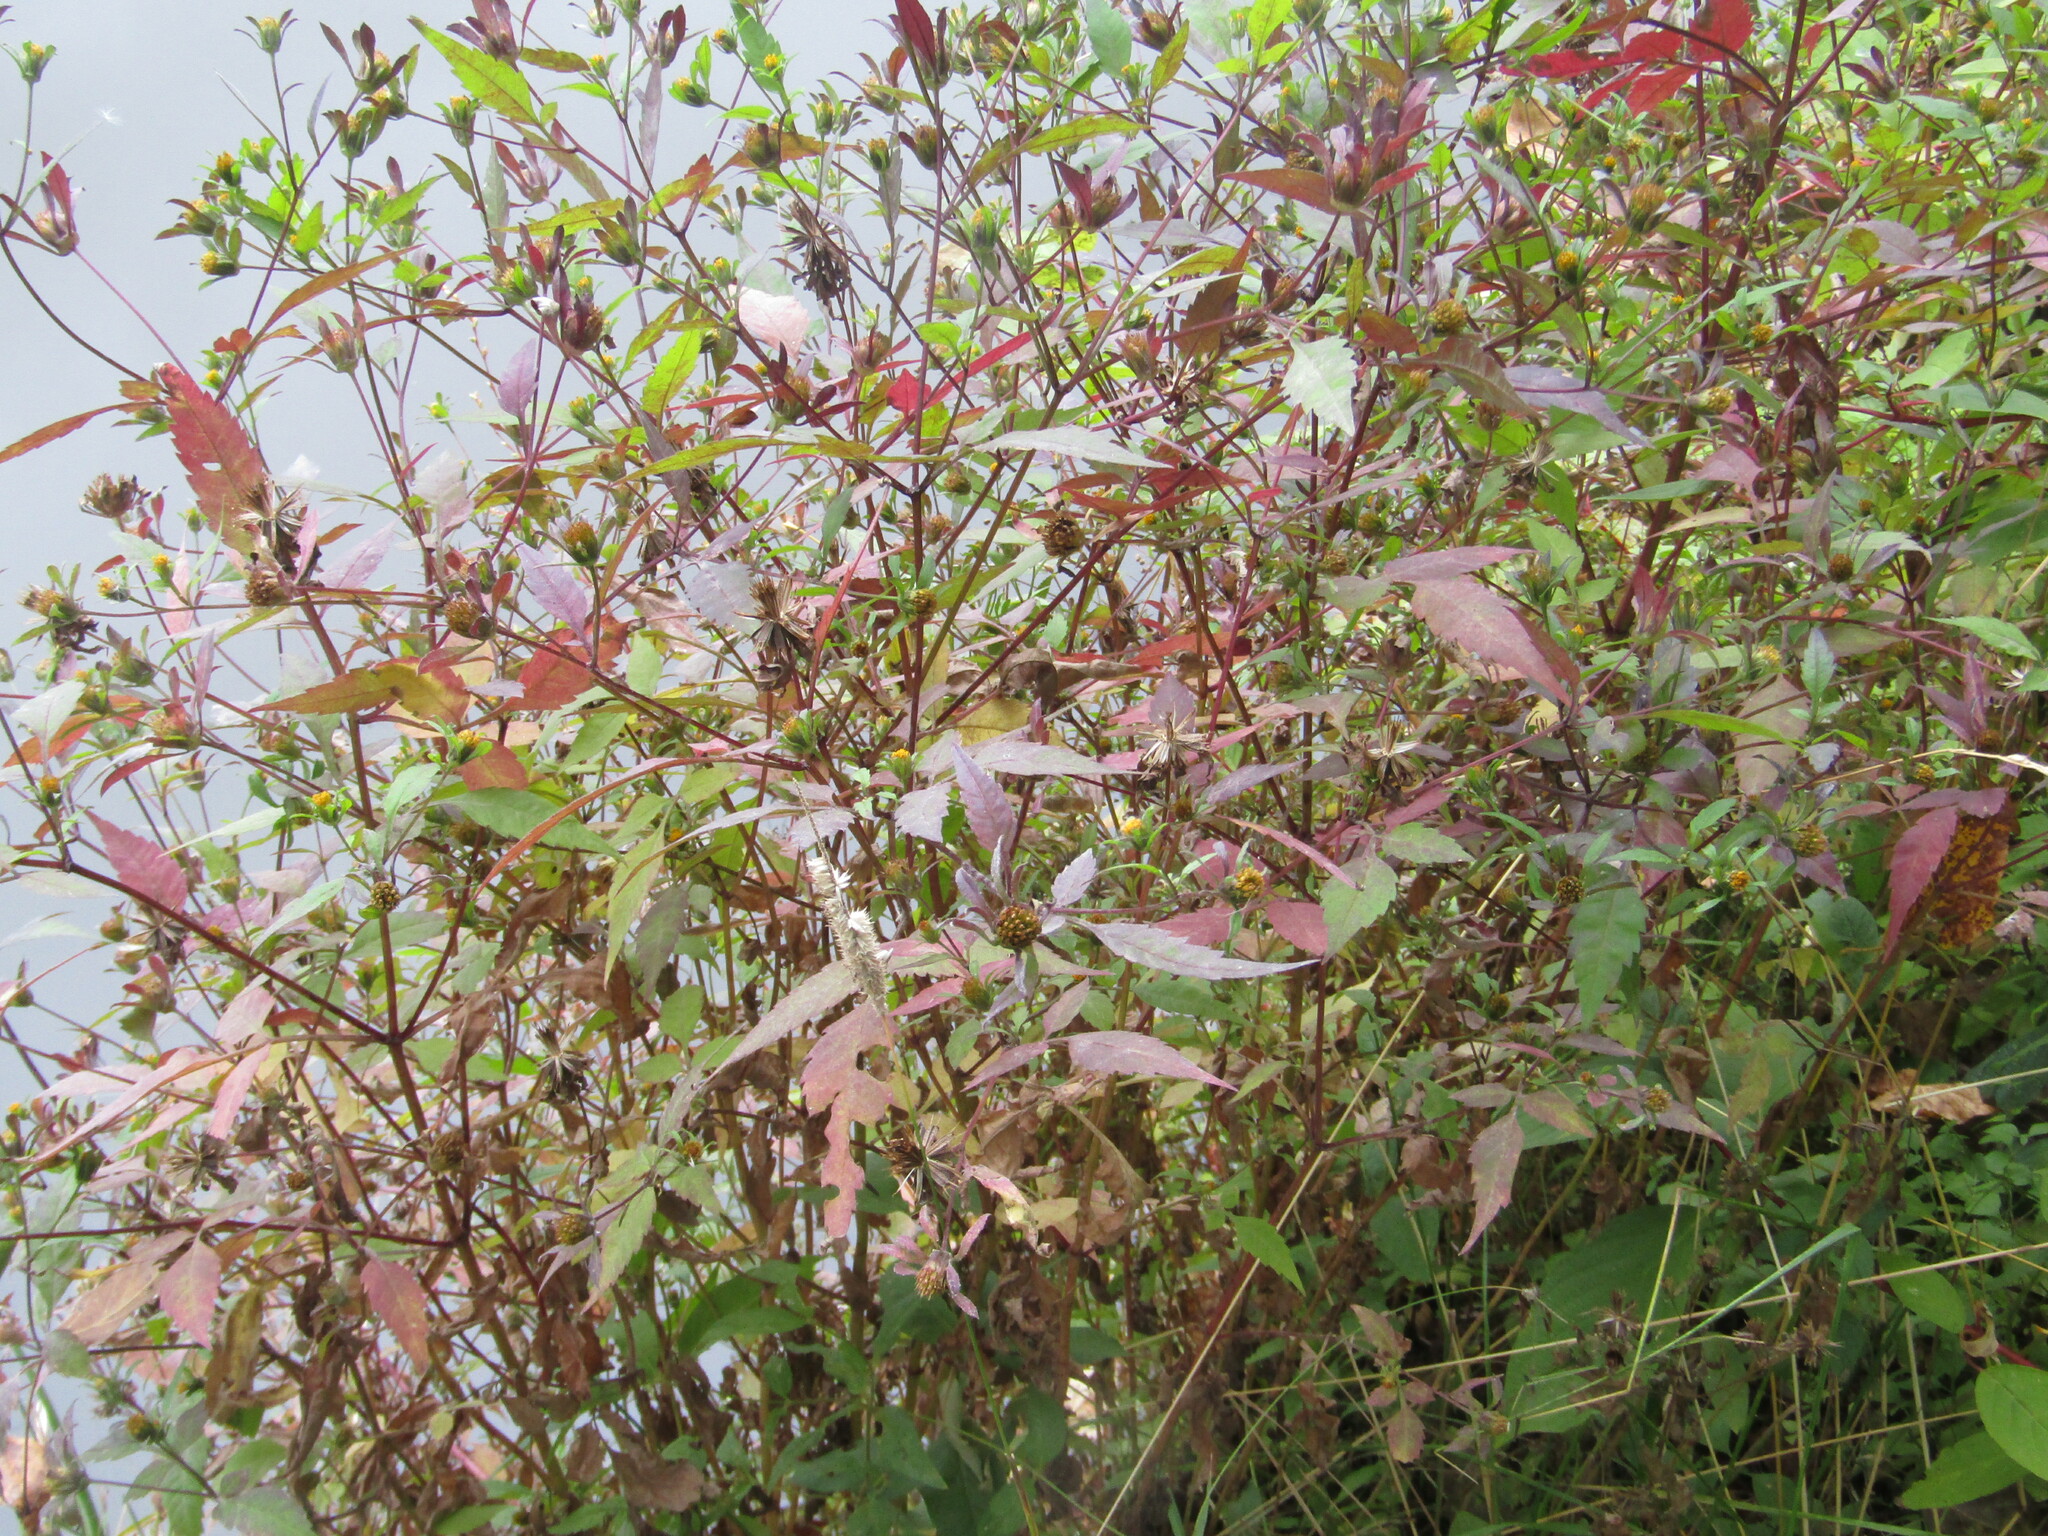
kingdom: Plantae
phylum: Tracheophyta
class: Magnoliopsida
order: Asterales
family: Asteraceae
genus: Bidens
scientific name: Bidens frondosa
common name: Beggarticks
